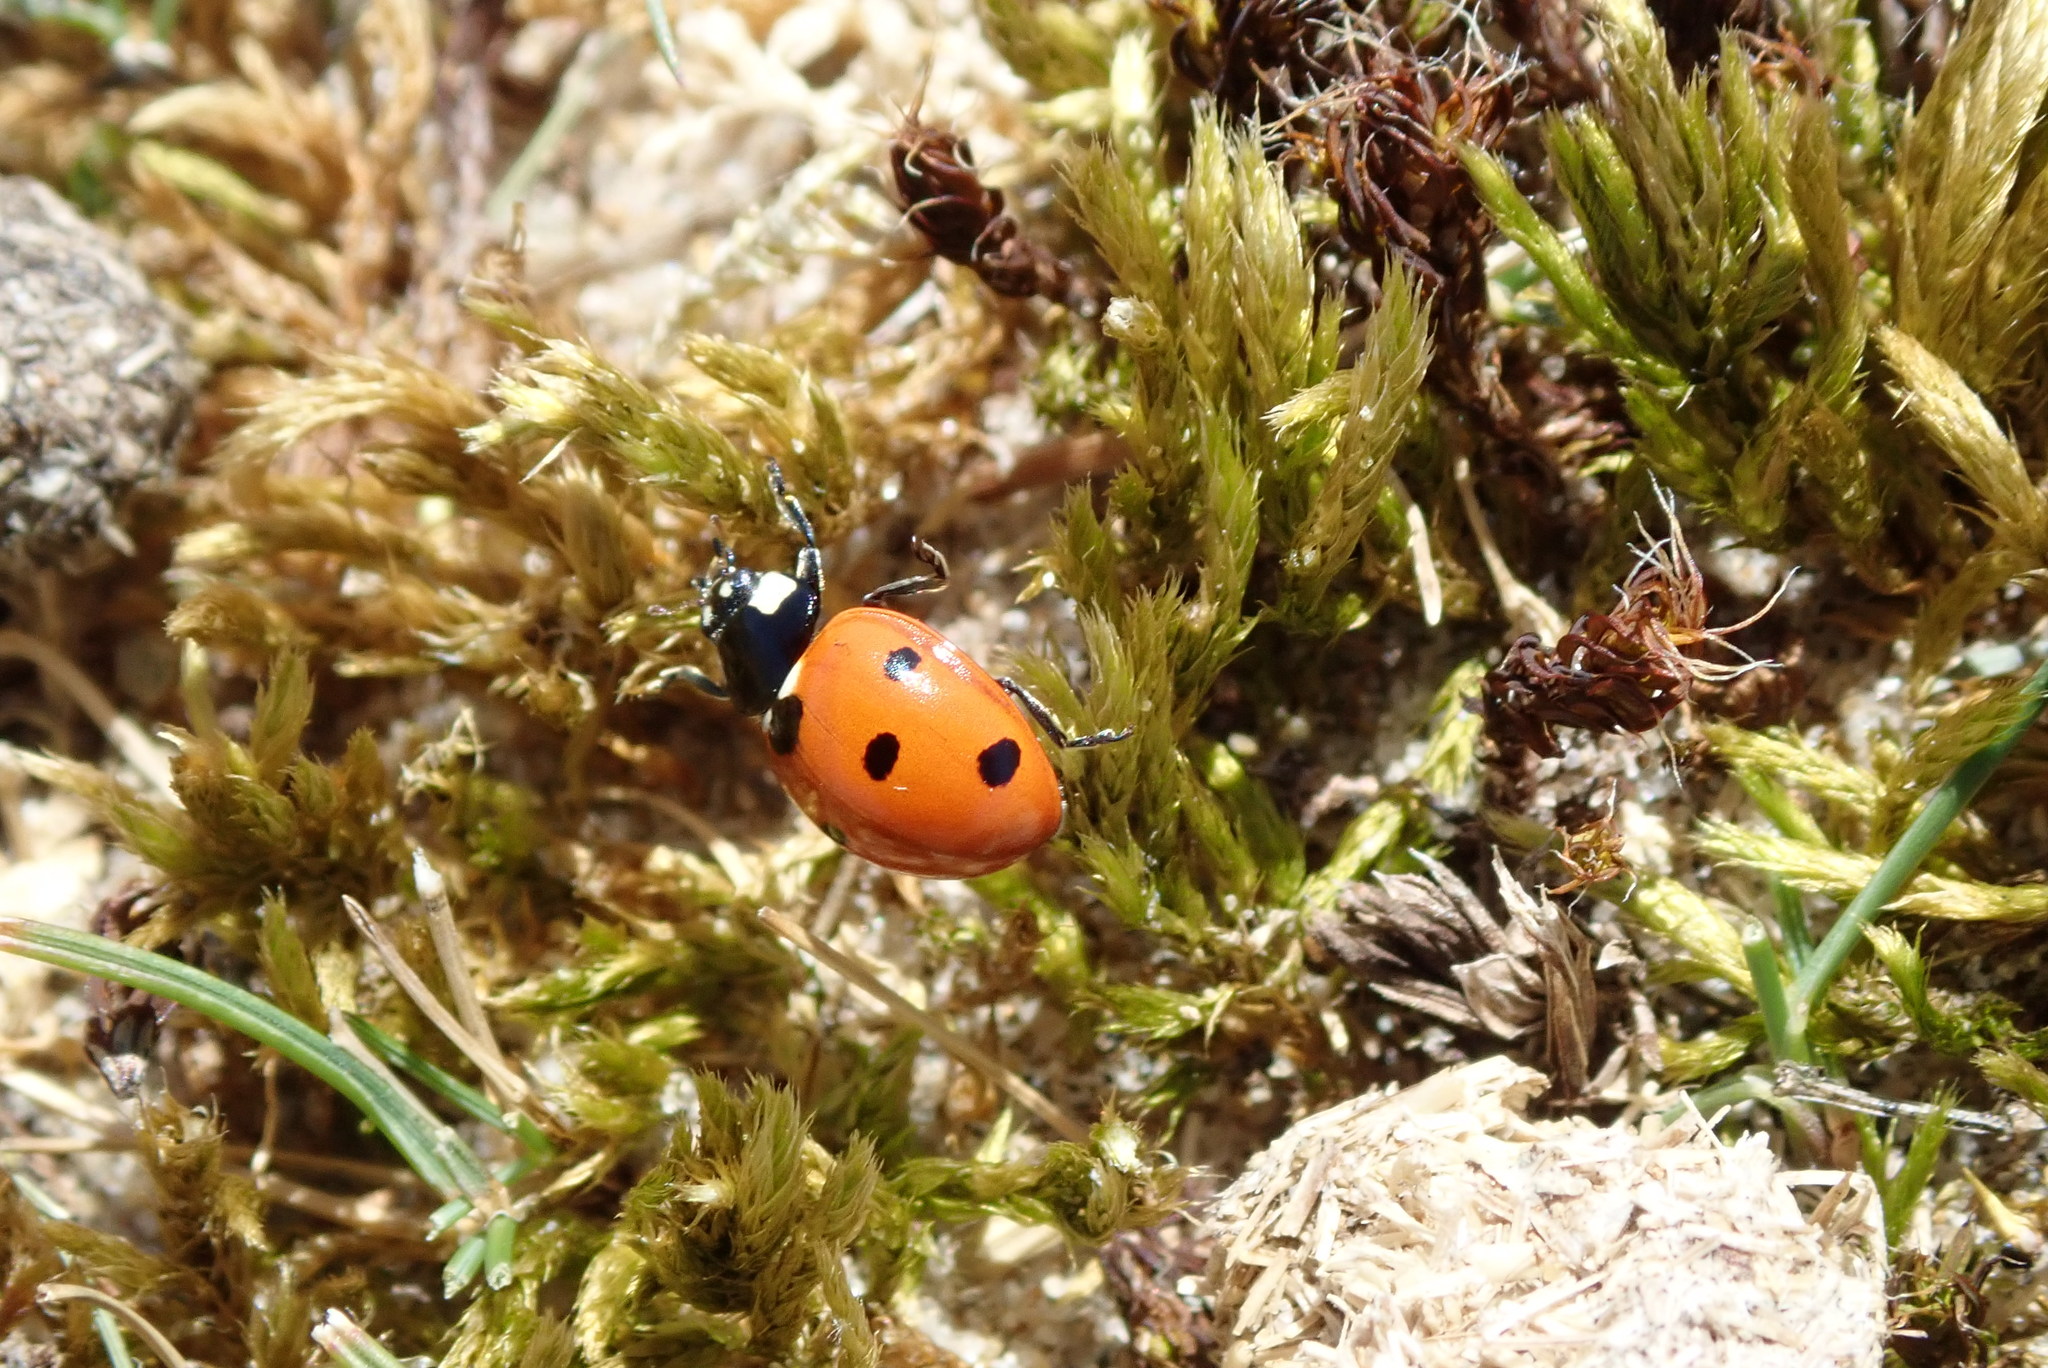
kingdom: Animalia
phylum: Arthropoda
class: Insecta
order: Coleoptera
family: Coccinellidae
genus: Coccinella
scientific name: Coccinella septempunctata
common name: Sevenspotted lady beetle
